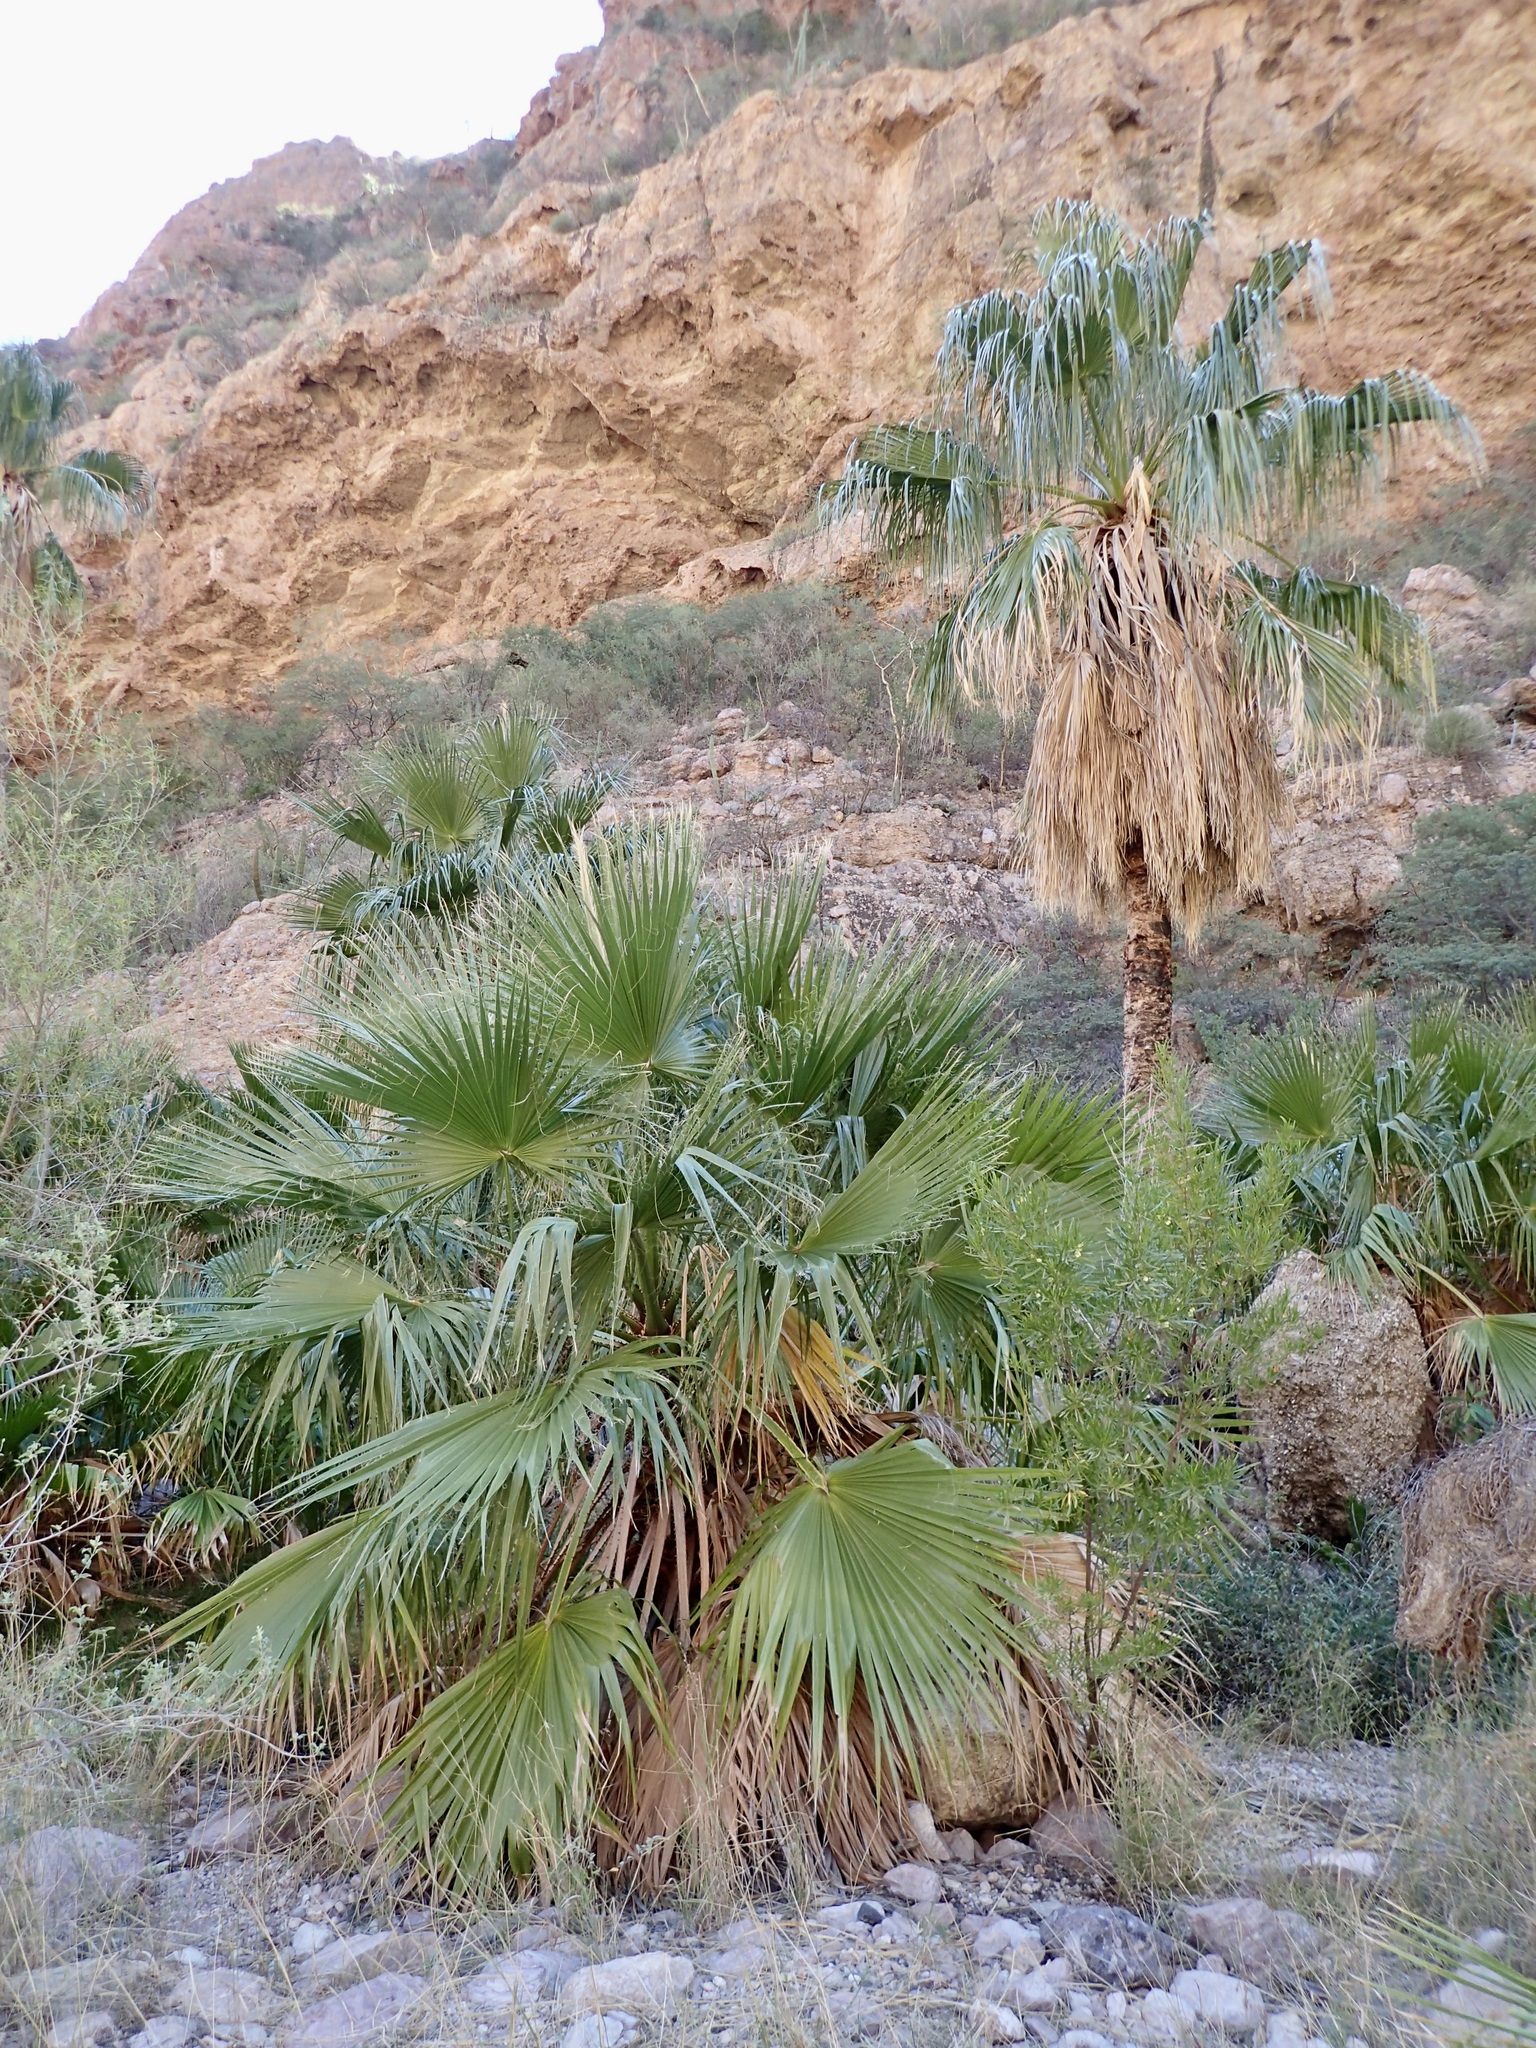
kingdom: Plantae
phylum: Tracheophyta
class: Liliopsida
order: Arecales
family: Arecaceae
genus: Washingtonia
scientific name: Washingtonia robusta
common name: Mexican fan palm
